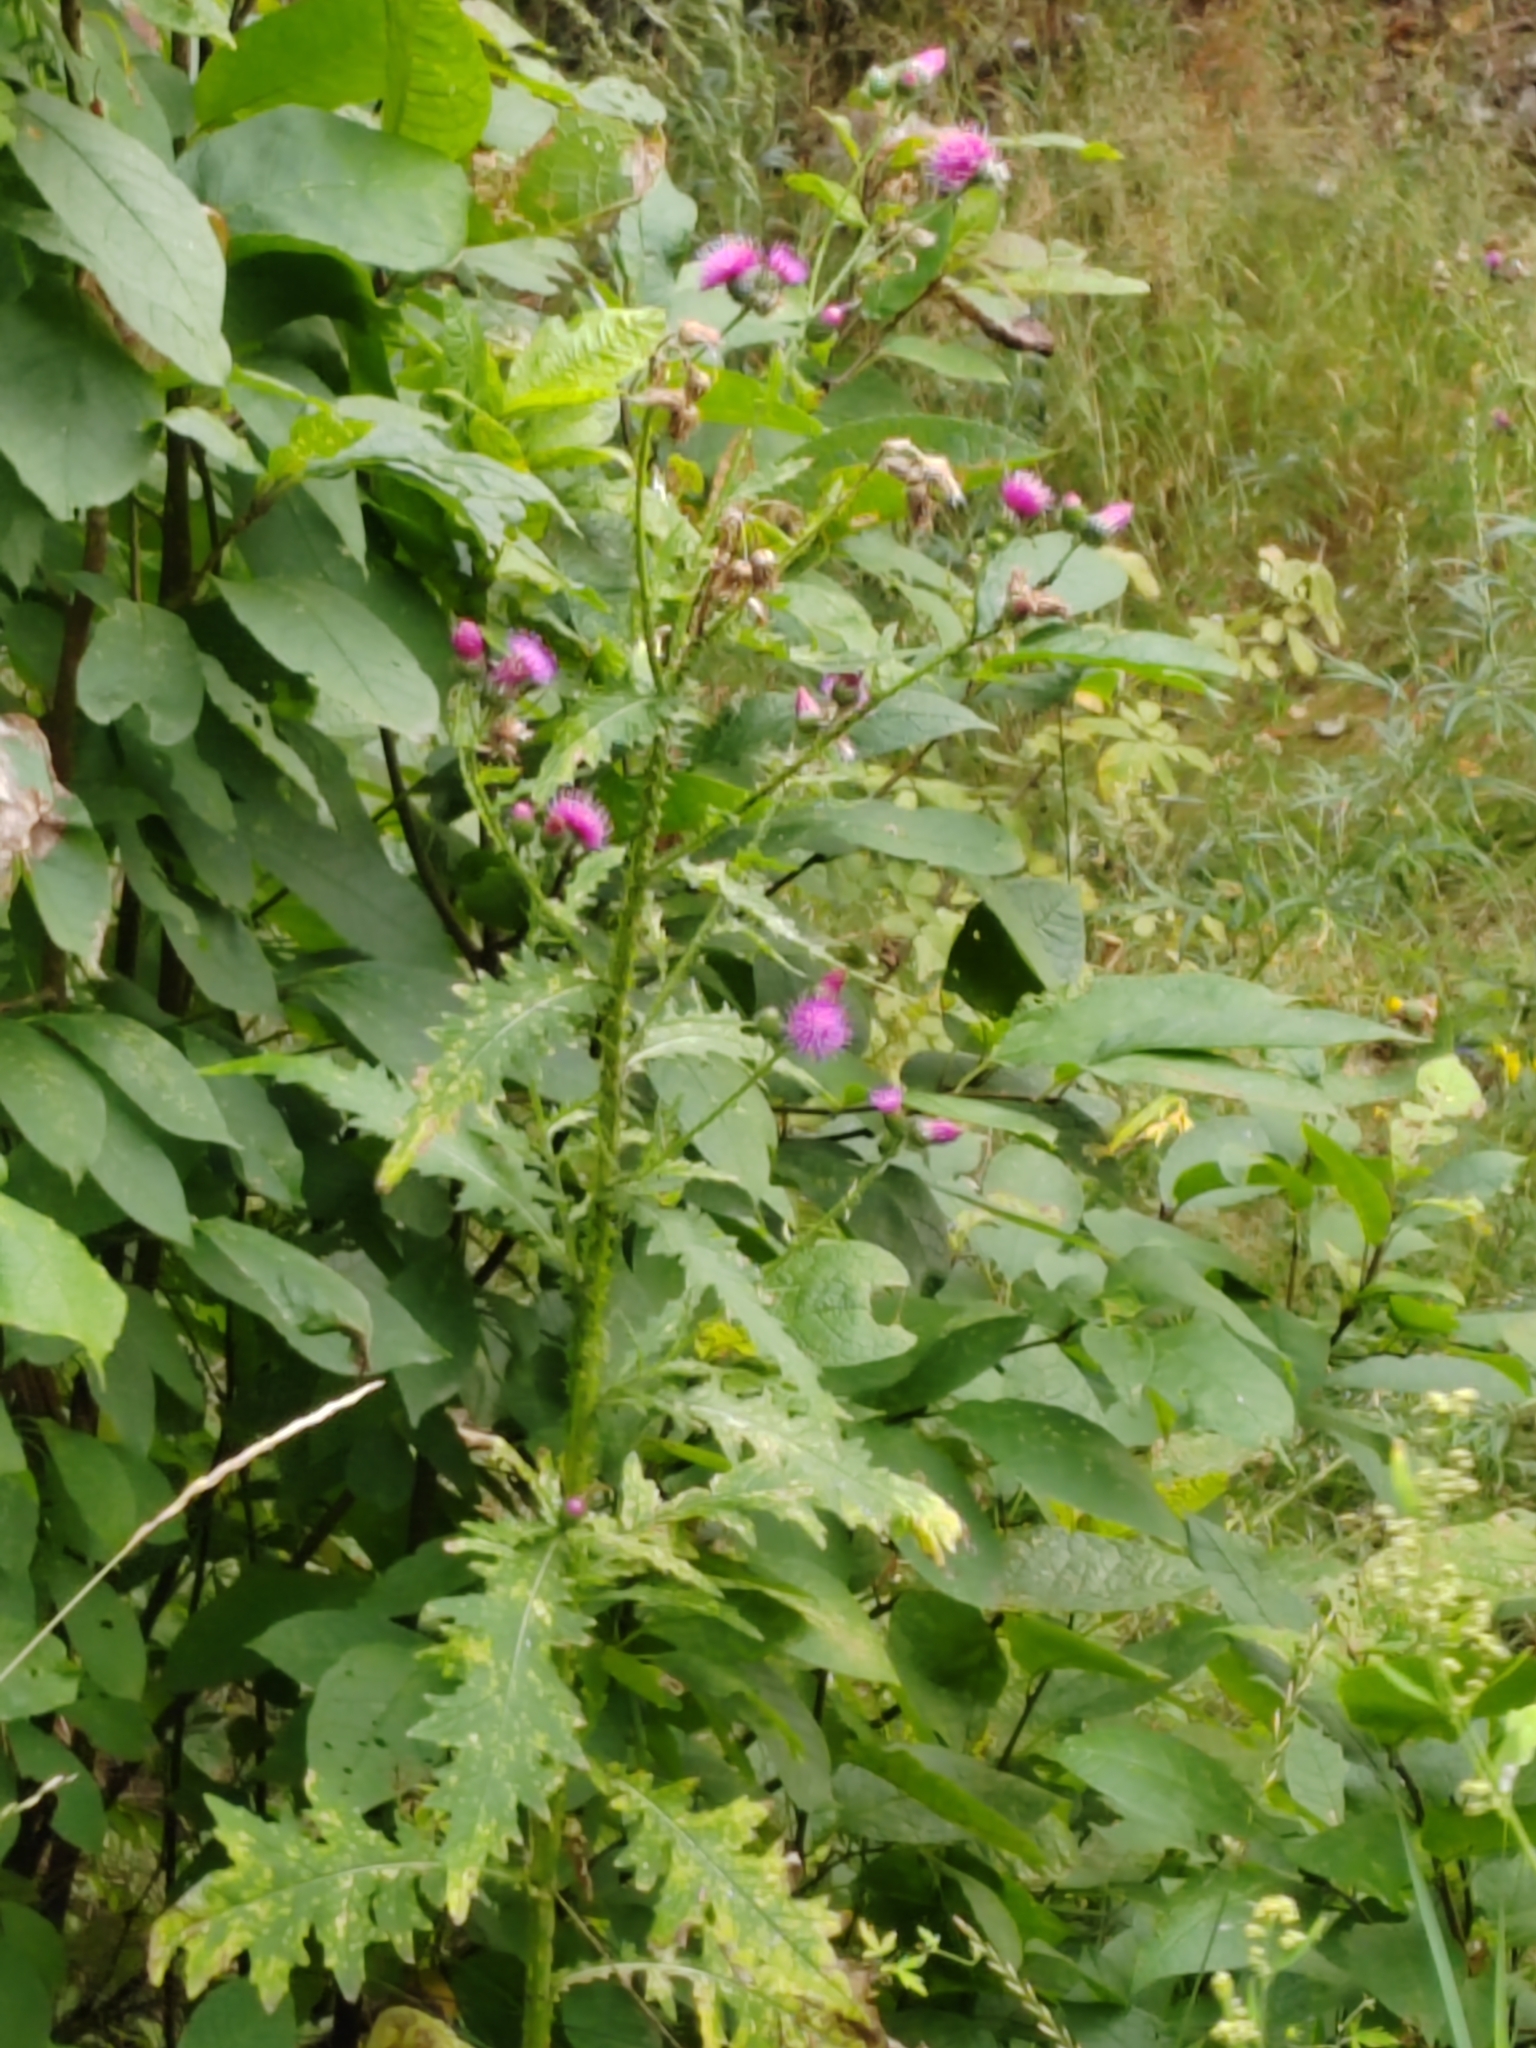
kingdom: Plantae
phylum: Tracheophyta
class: Magnoliopsida
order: Asterales
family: Asteraceae
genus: Carduus
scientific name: Carduus crispus
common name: Welted thistle
